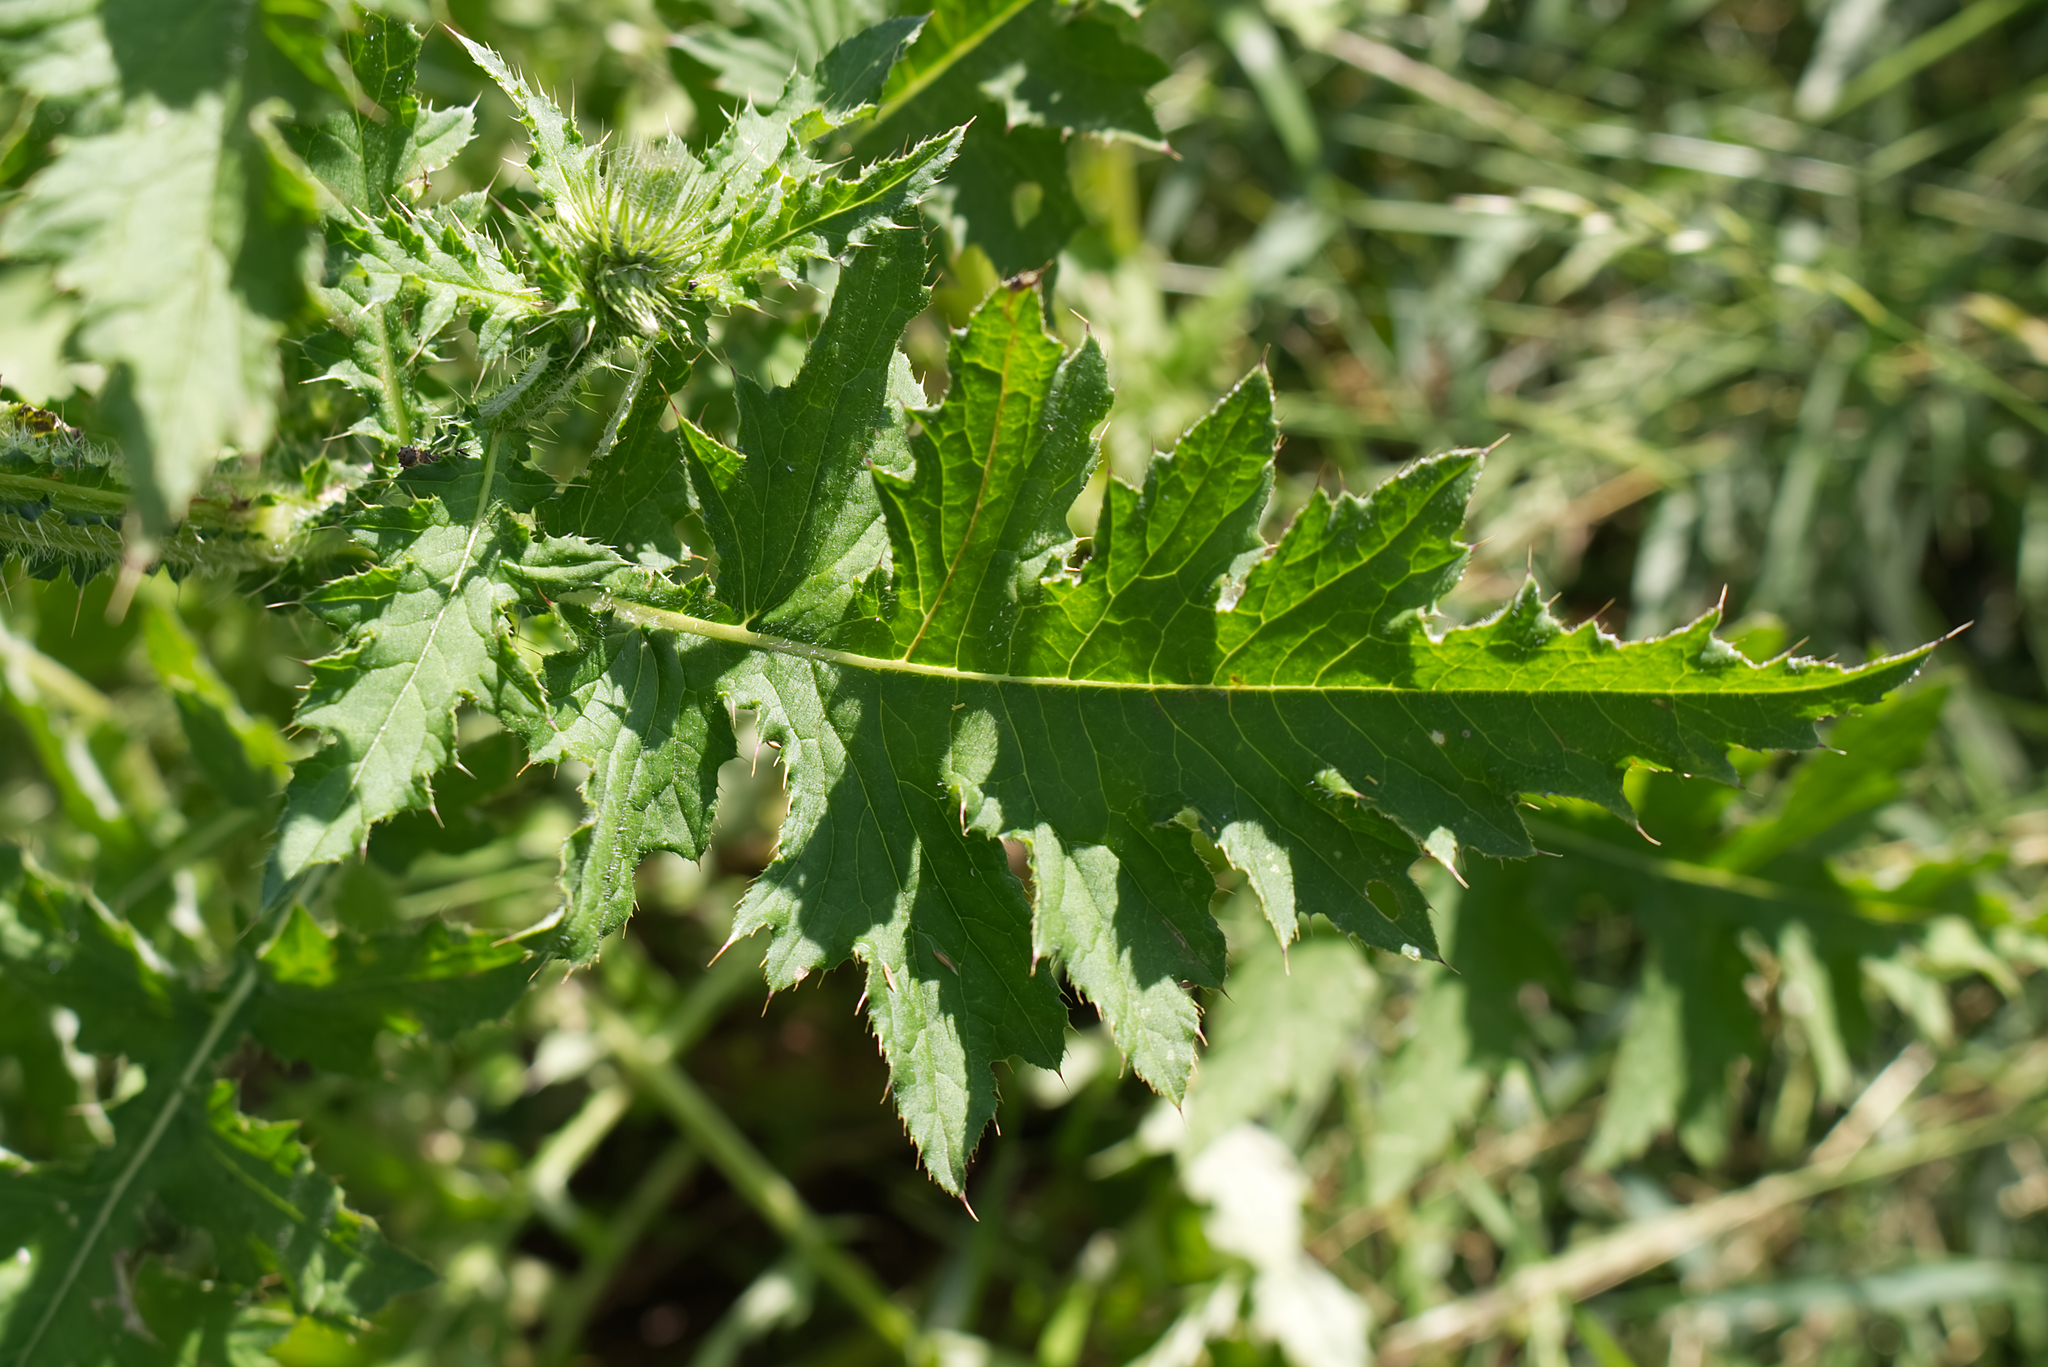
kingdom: Plantae
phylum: Tracheophyta
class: Magnoliopsida
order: Asterales
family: Asteraceae
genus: Carduus
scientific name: Carduus crispus
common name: Welted thistle
